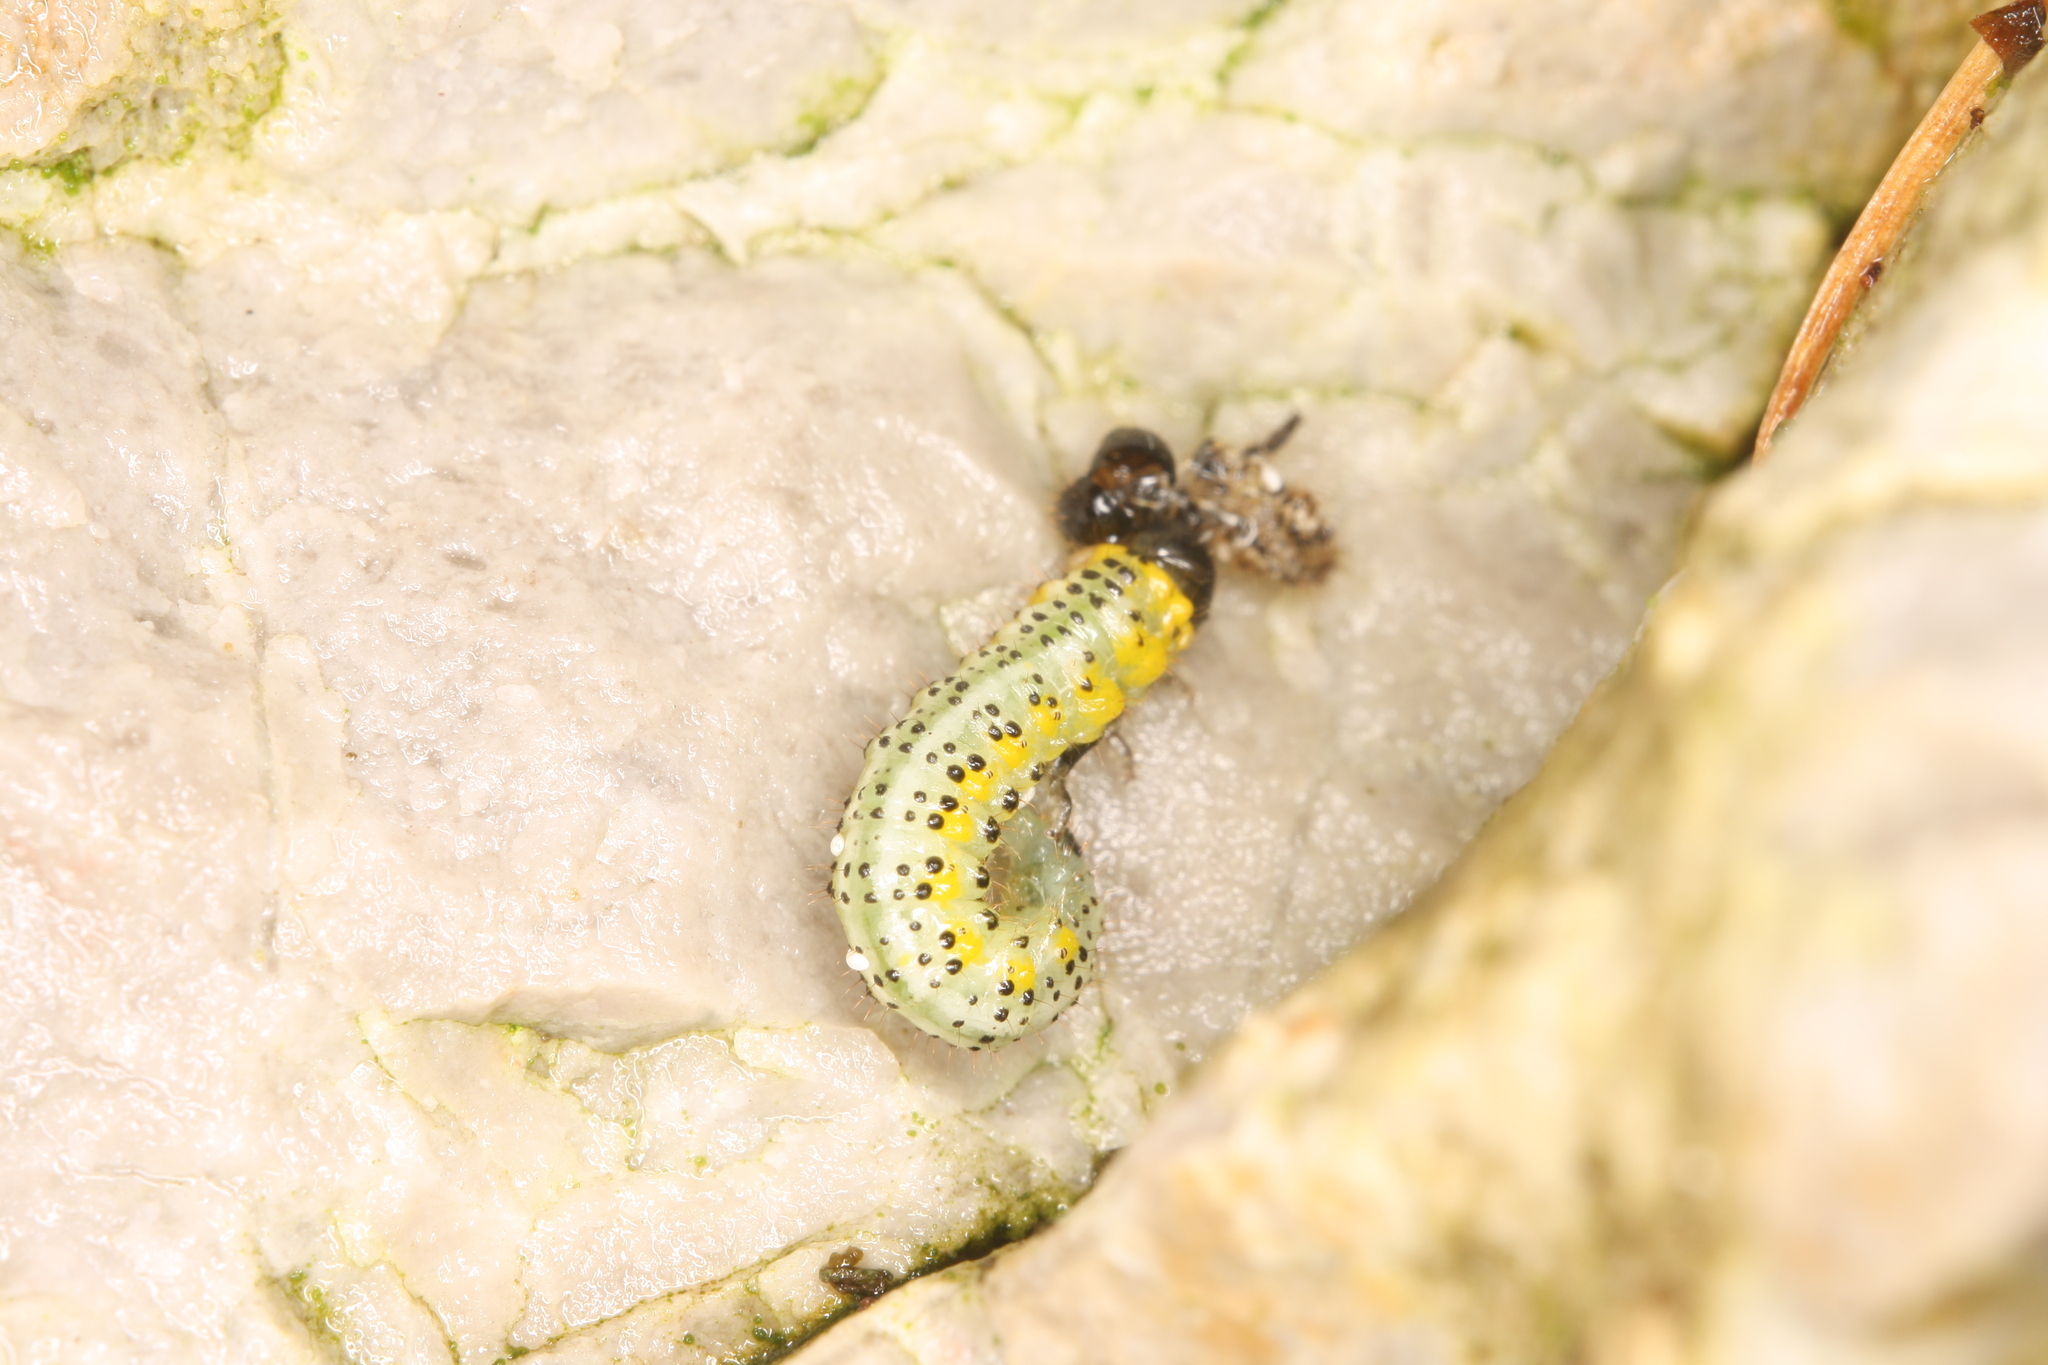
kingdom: Animalia
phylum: Arthropoda
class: Insecta
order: Hymenoptera
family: Argidae
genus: Arge
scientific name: Arge gracilicornis
